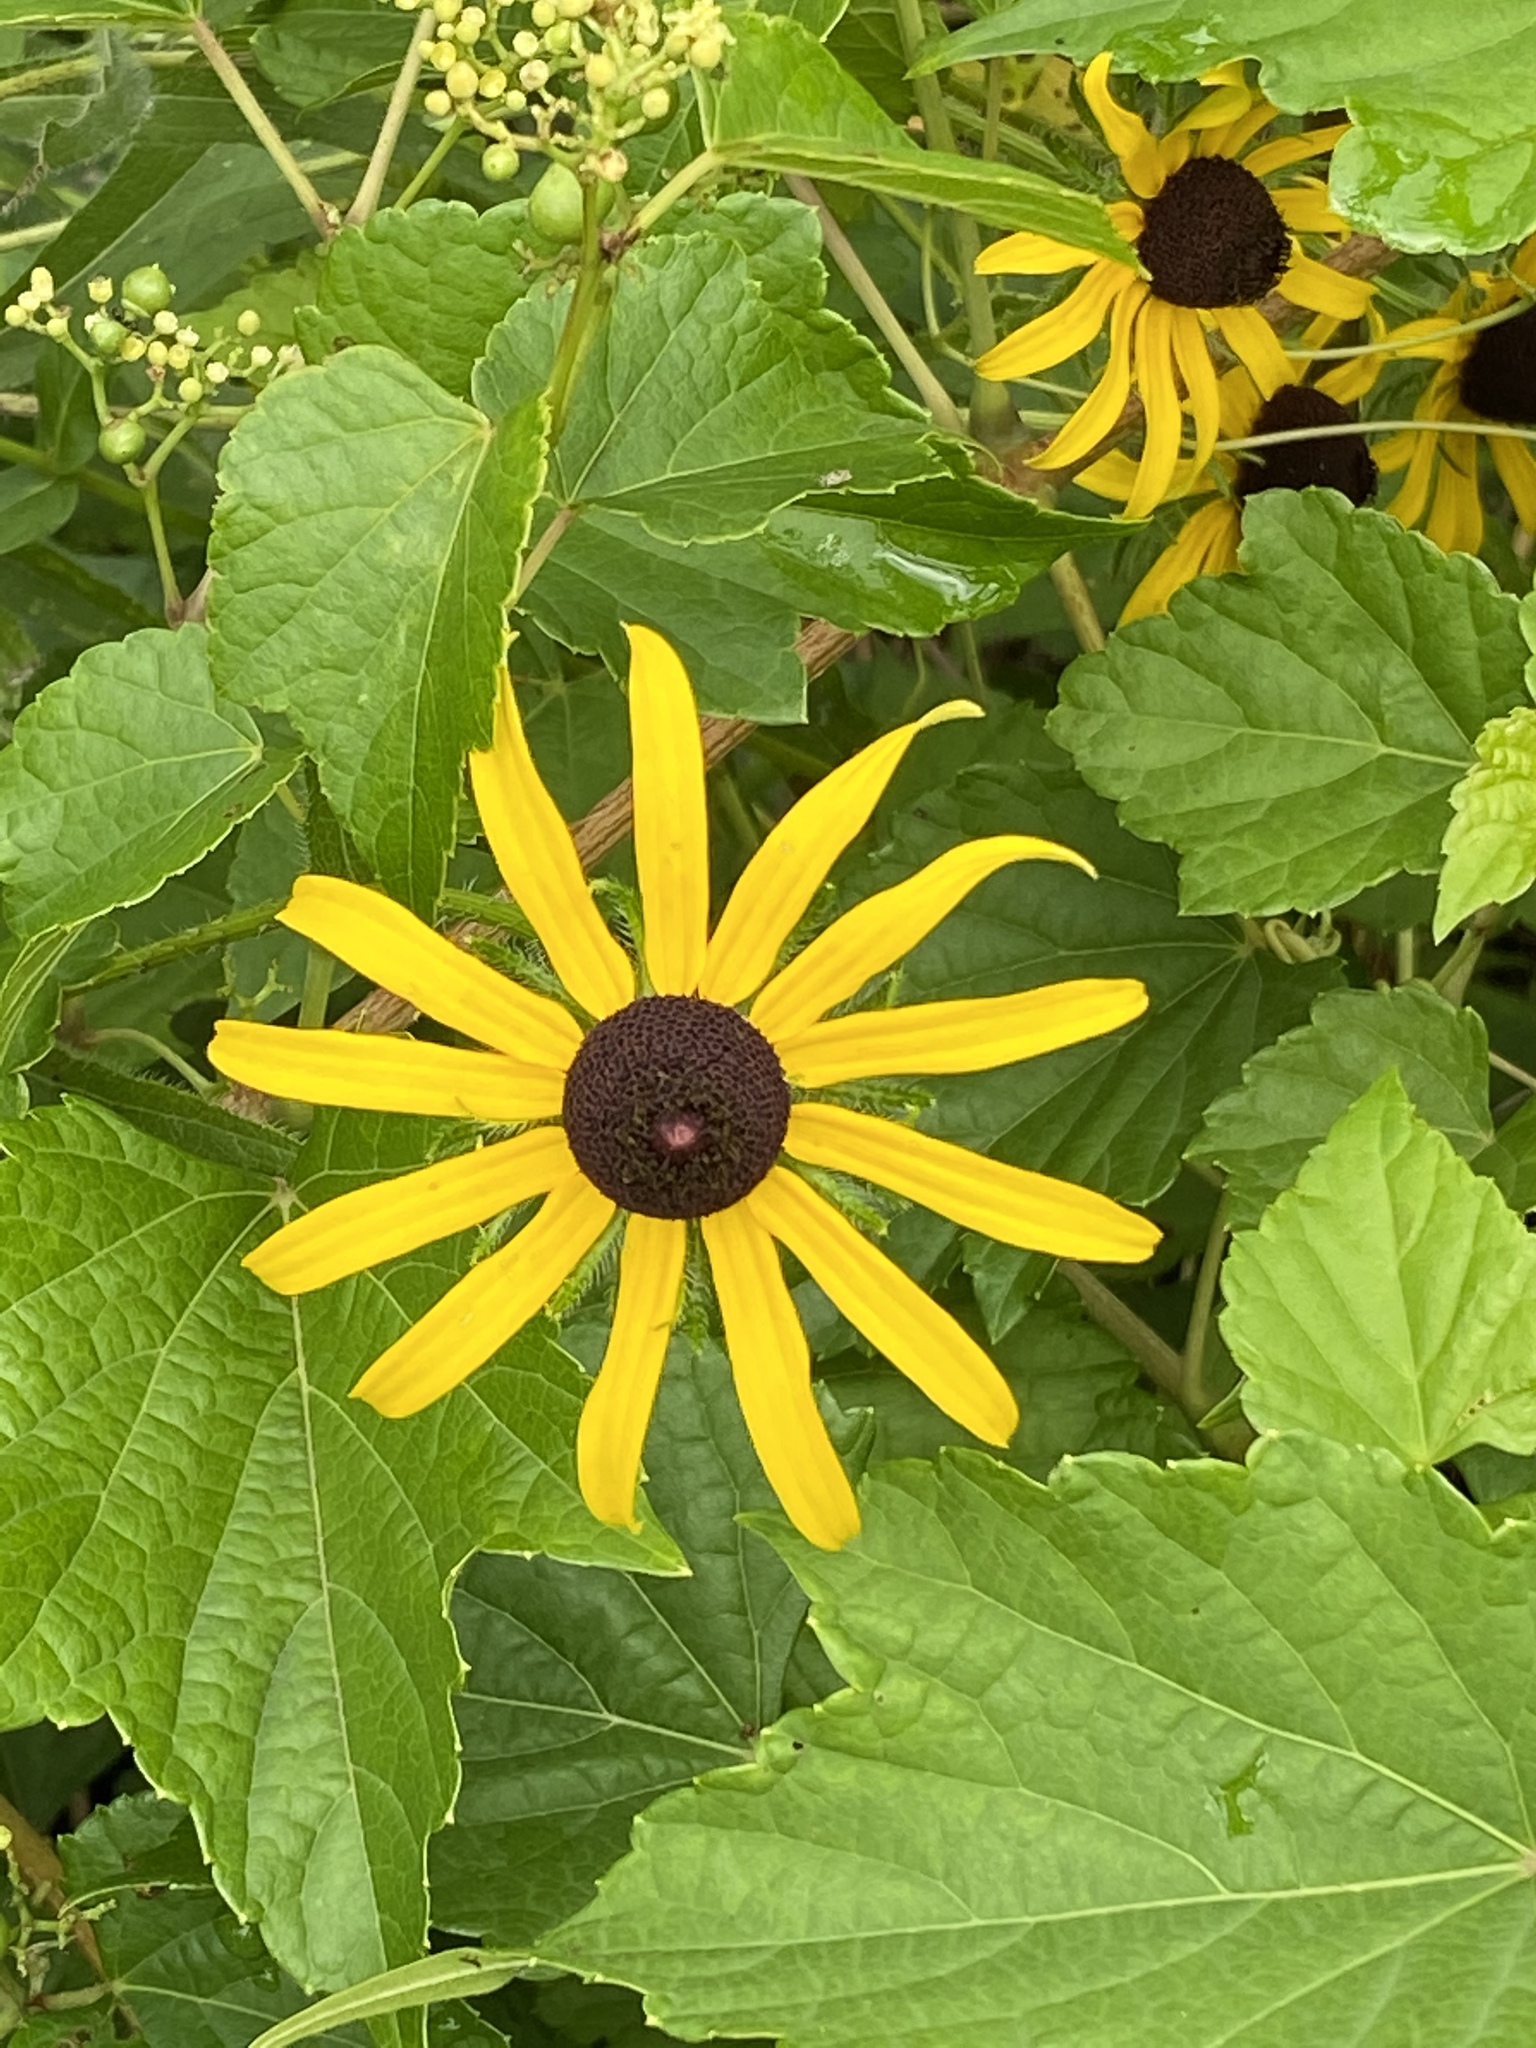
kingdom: Plantae
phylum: Tracheophyta
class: Magnoliopsida
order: Asterales
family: Asteraceae
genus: Rudbeckia
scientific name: Rudbeckia hirta
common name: Black-eyed-susan
